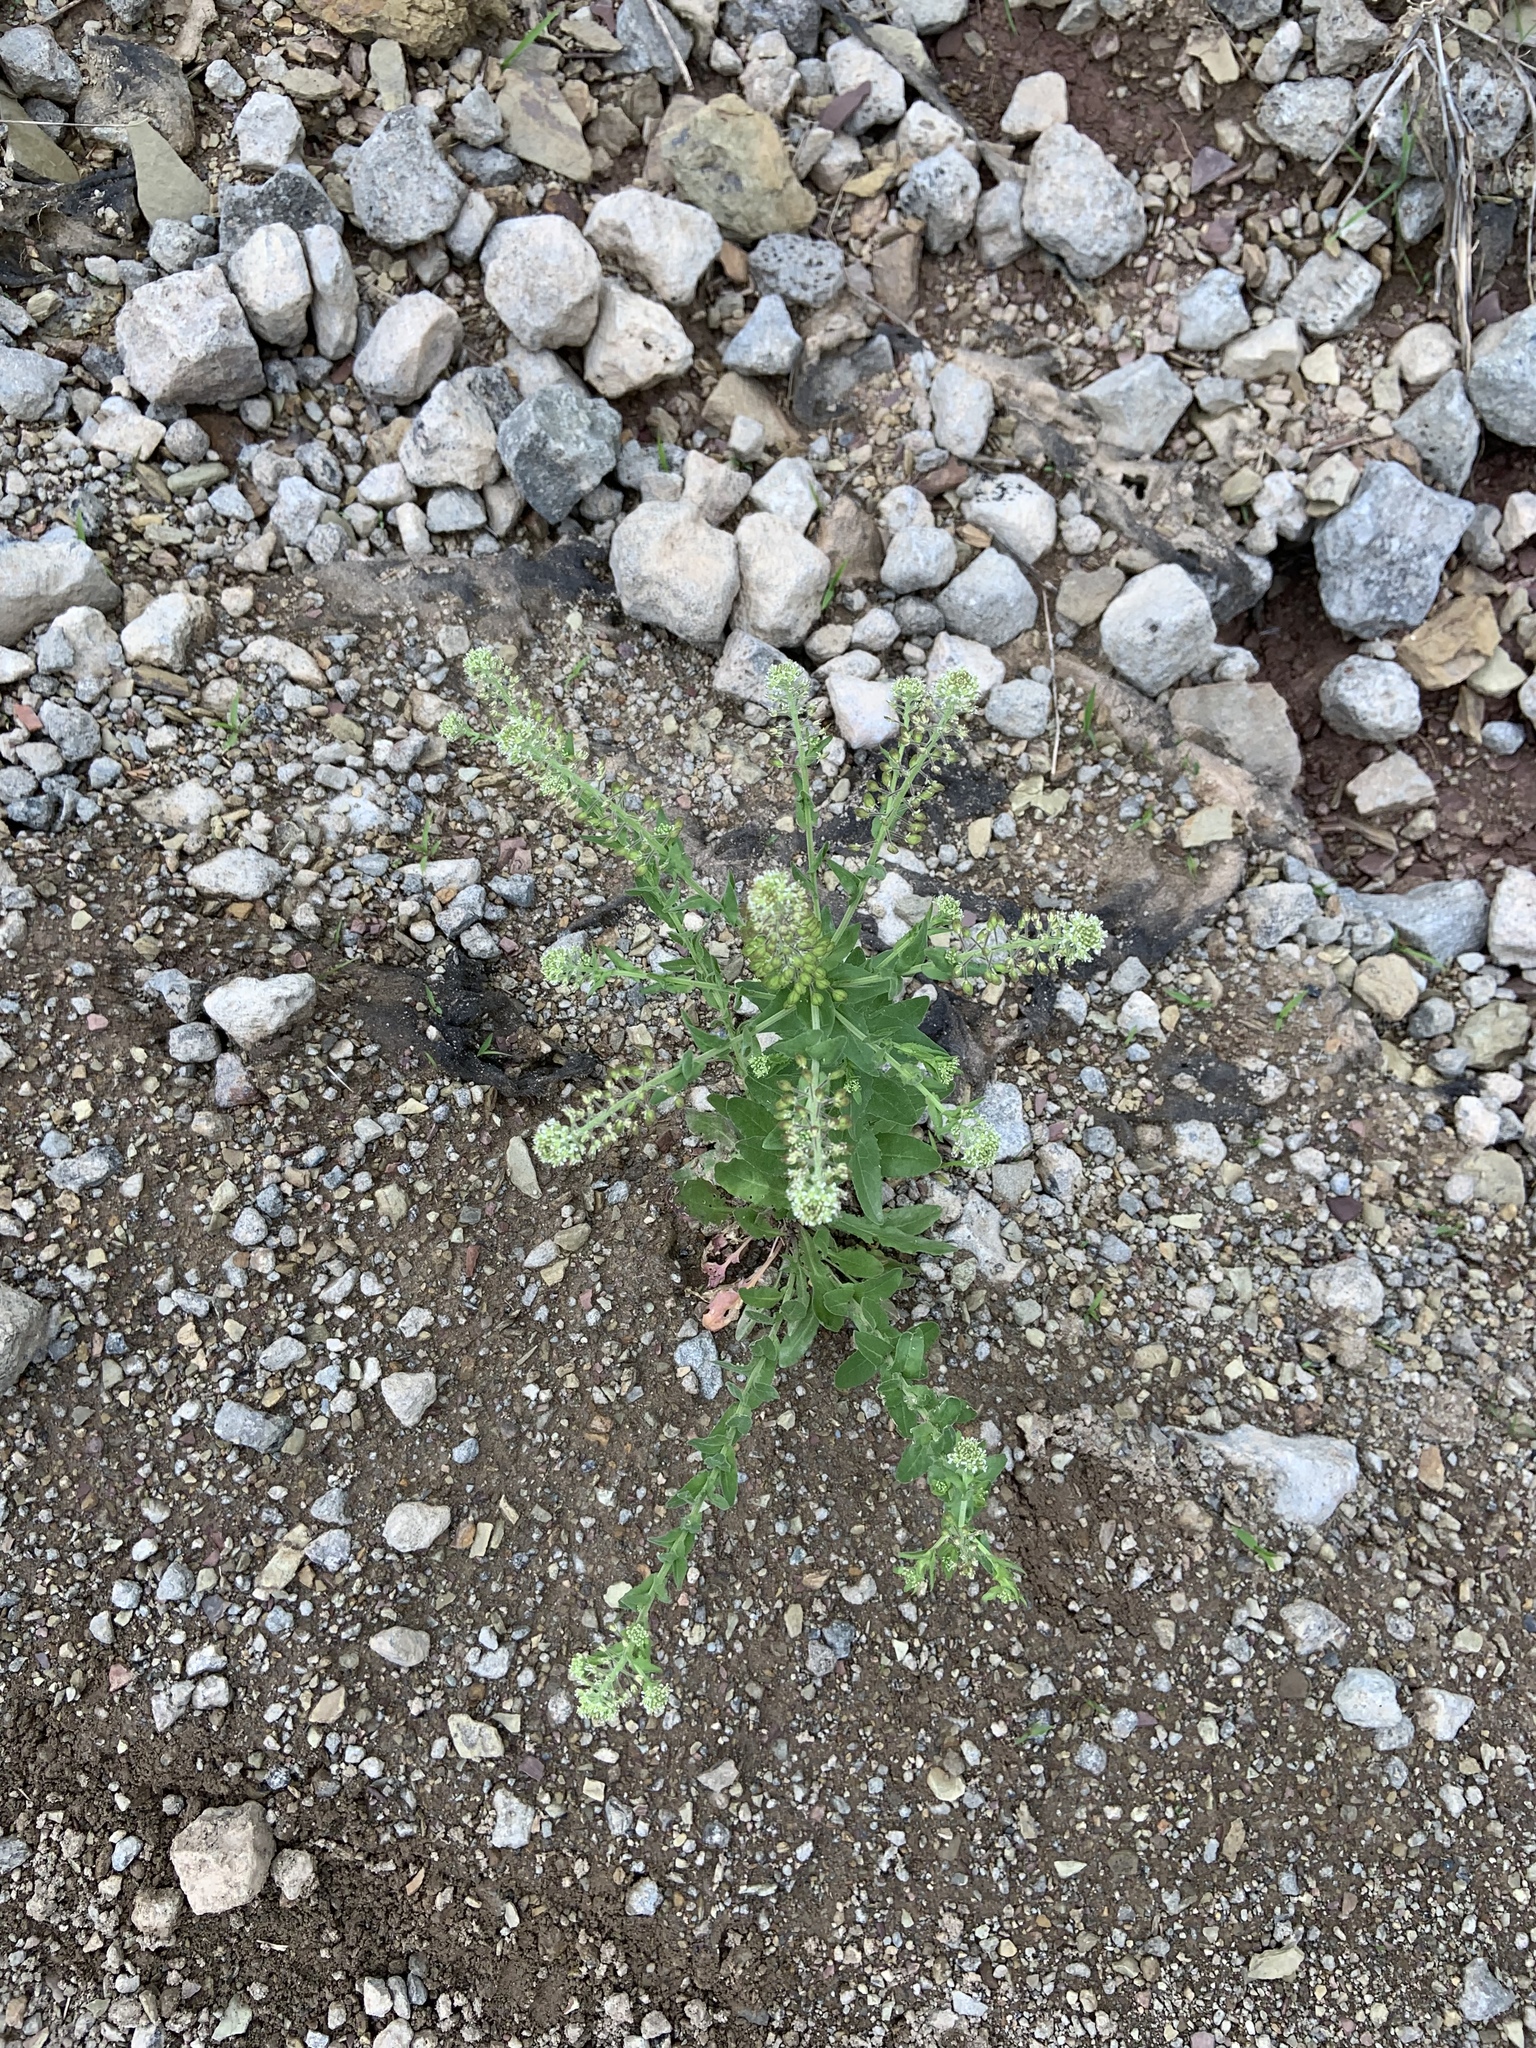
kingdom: Plantae
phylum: Tracheophyta
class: Magnoliopsida
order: Brassicales
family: Brassicaceae
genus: Lepidium
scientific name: Lepidium campestre
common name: Field pepperwort
